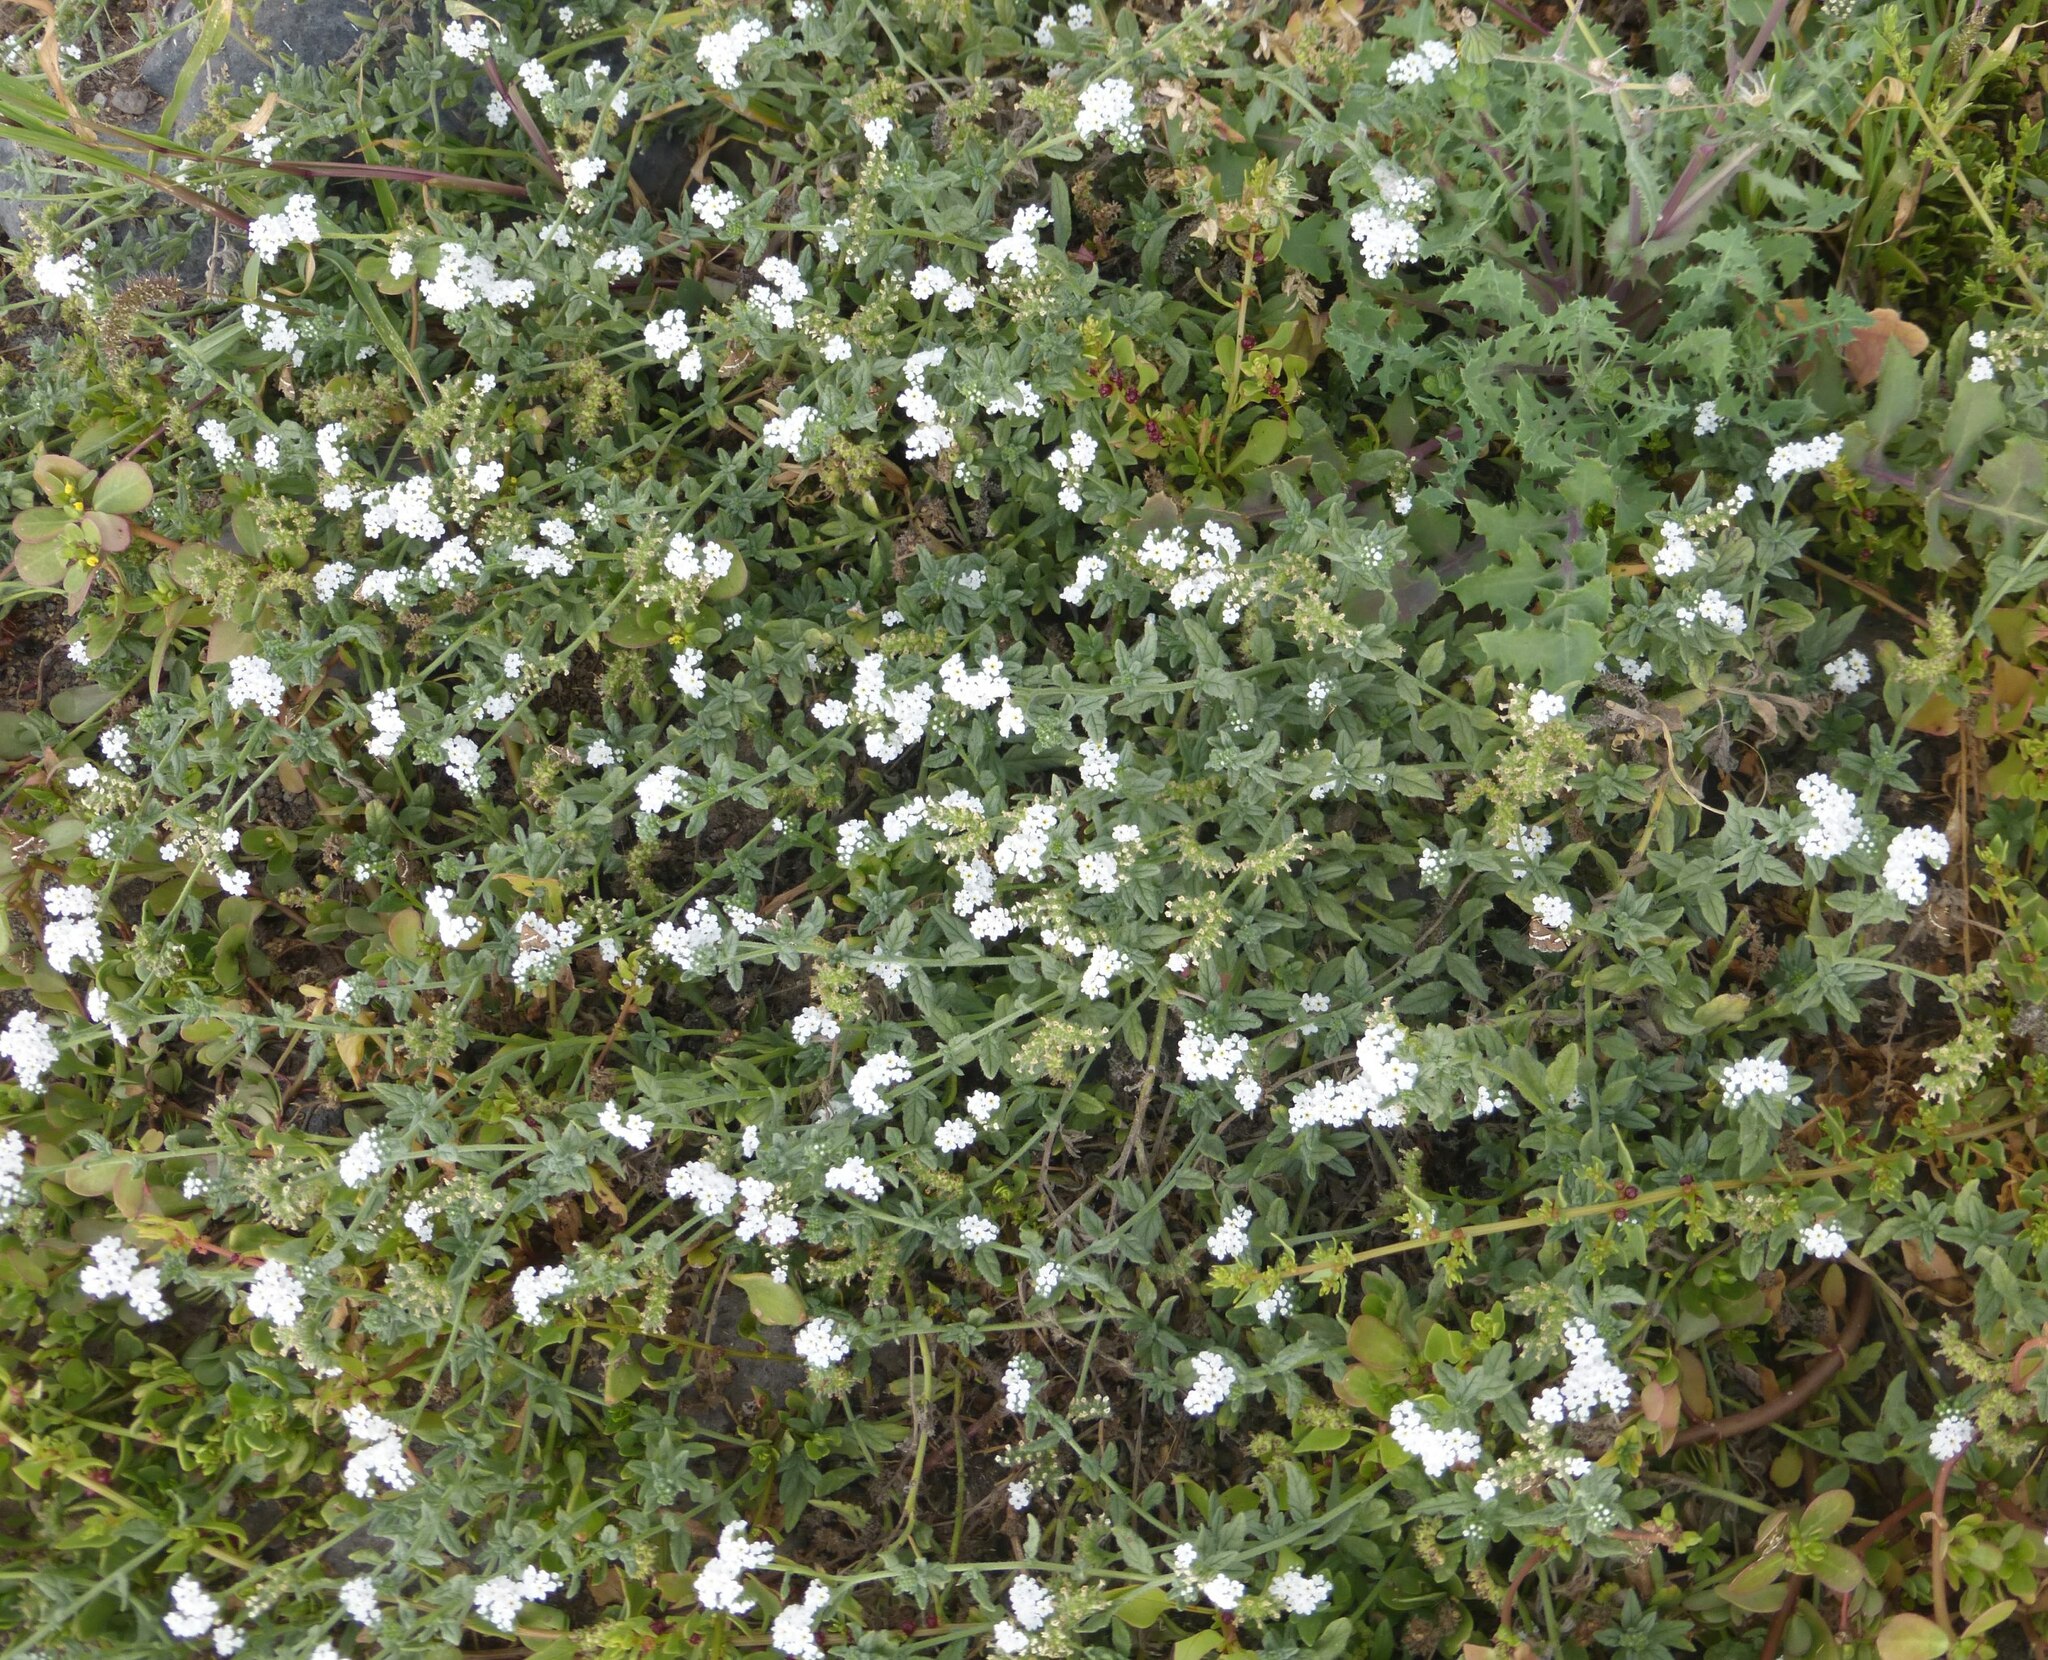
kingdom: Plantae
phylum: Tracheophyta
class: Magnoliopsida
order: Boraginales
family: Heliotropiaceae
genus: Heliotropium
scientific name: Heliotropium ramosissimum
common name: Wavy heliotrope
